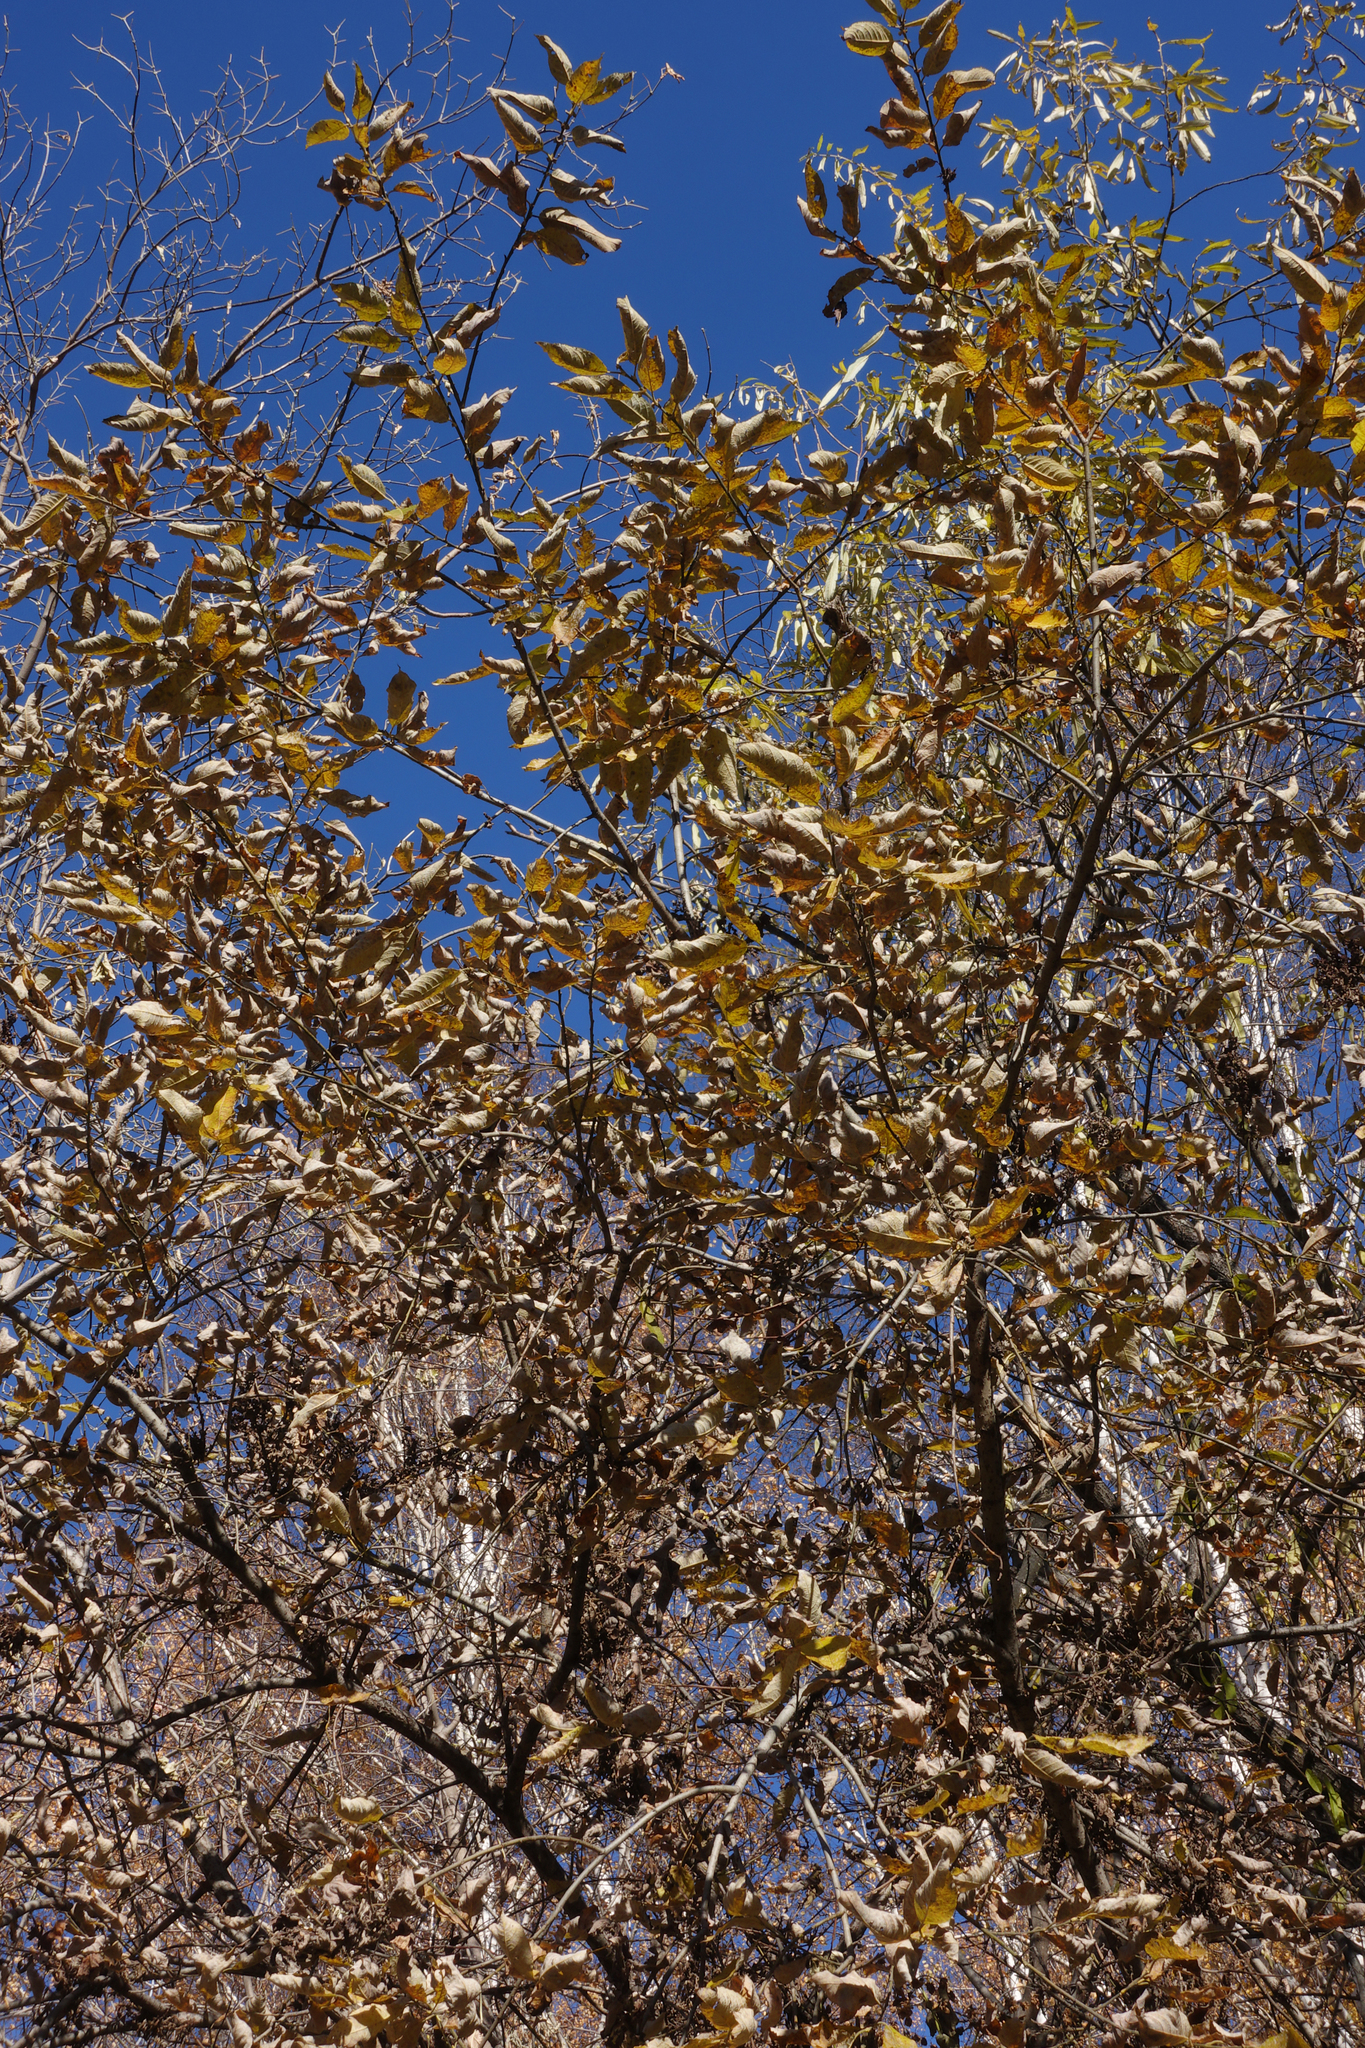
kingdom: Plantae
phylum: Tracheophyta
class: Magnoliopsida
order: Malpighiales
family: Salicaceae
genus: Salix
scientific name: Salix caprea
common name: Goat willow
